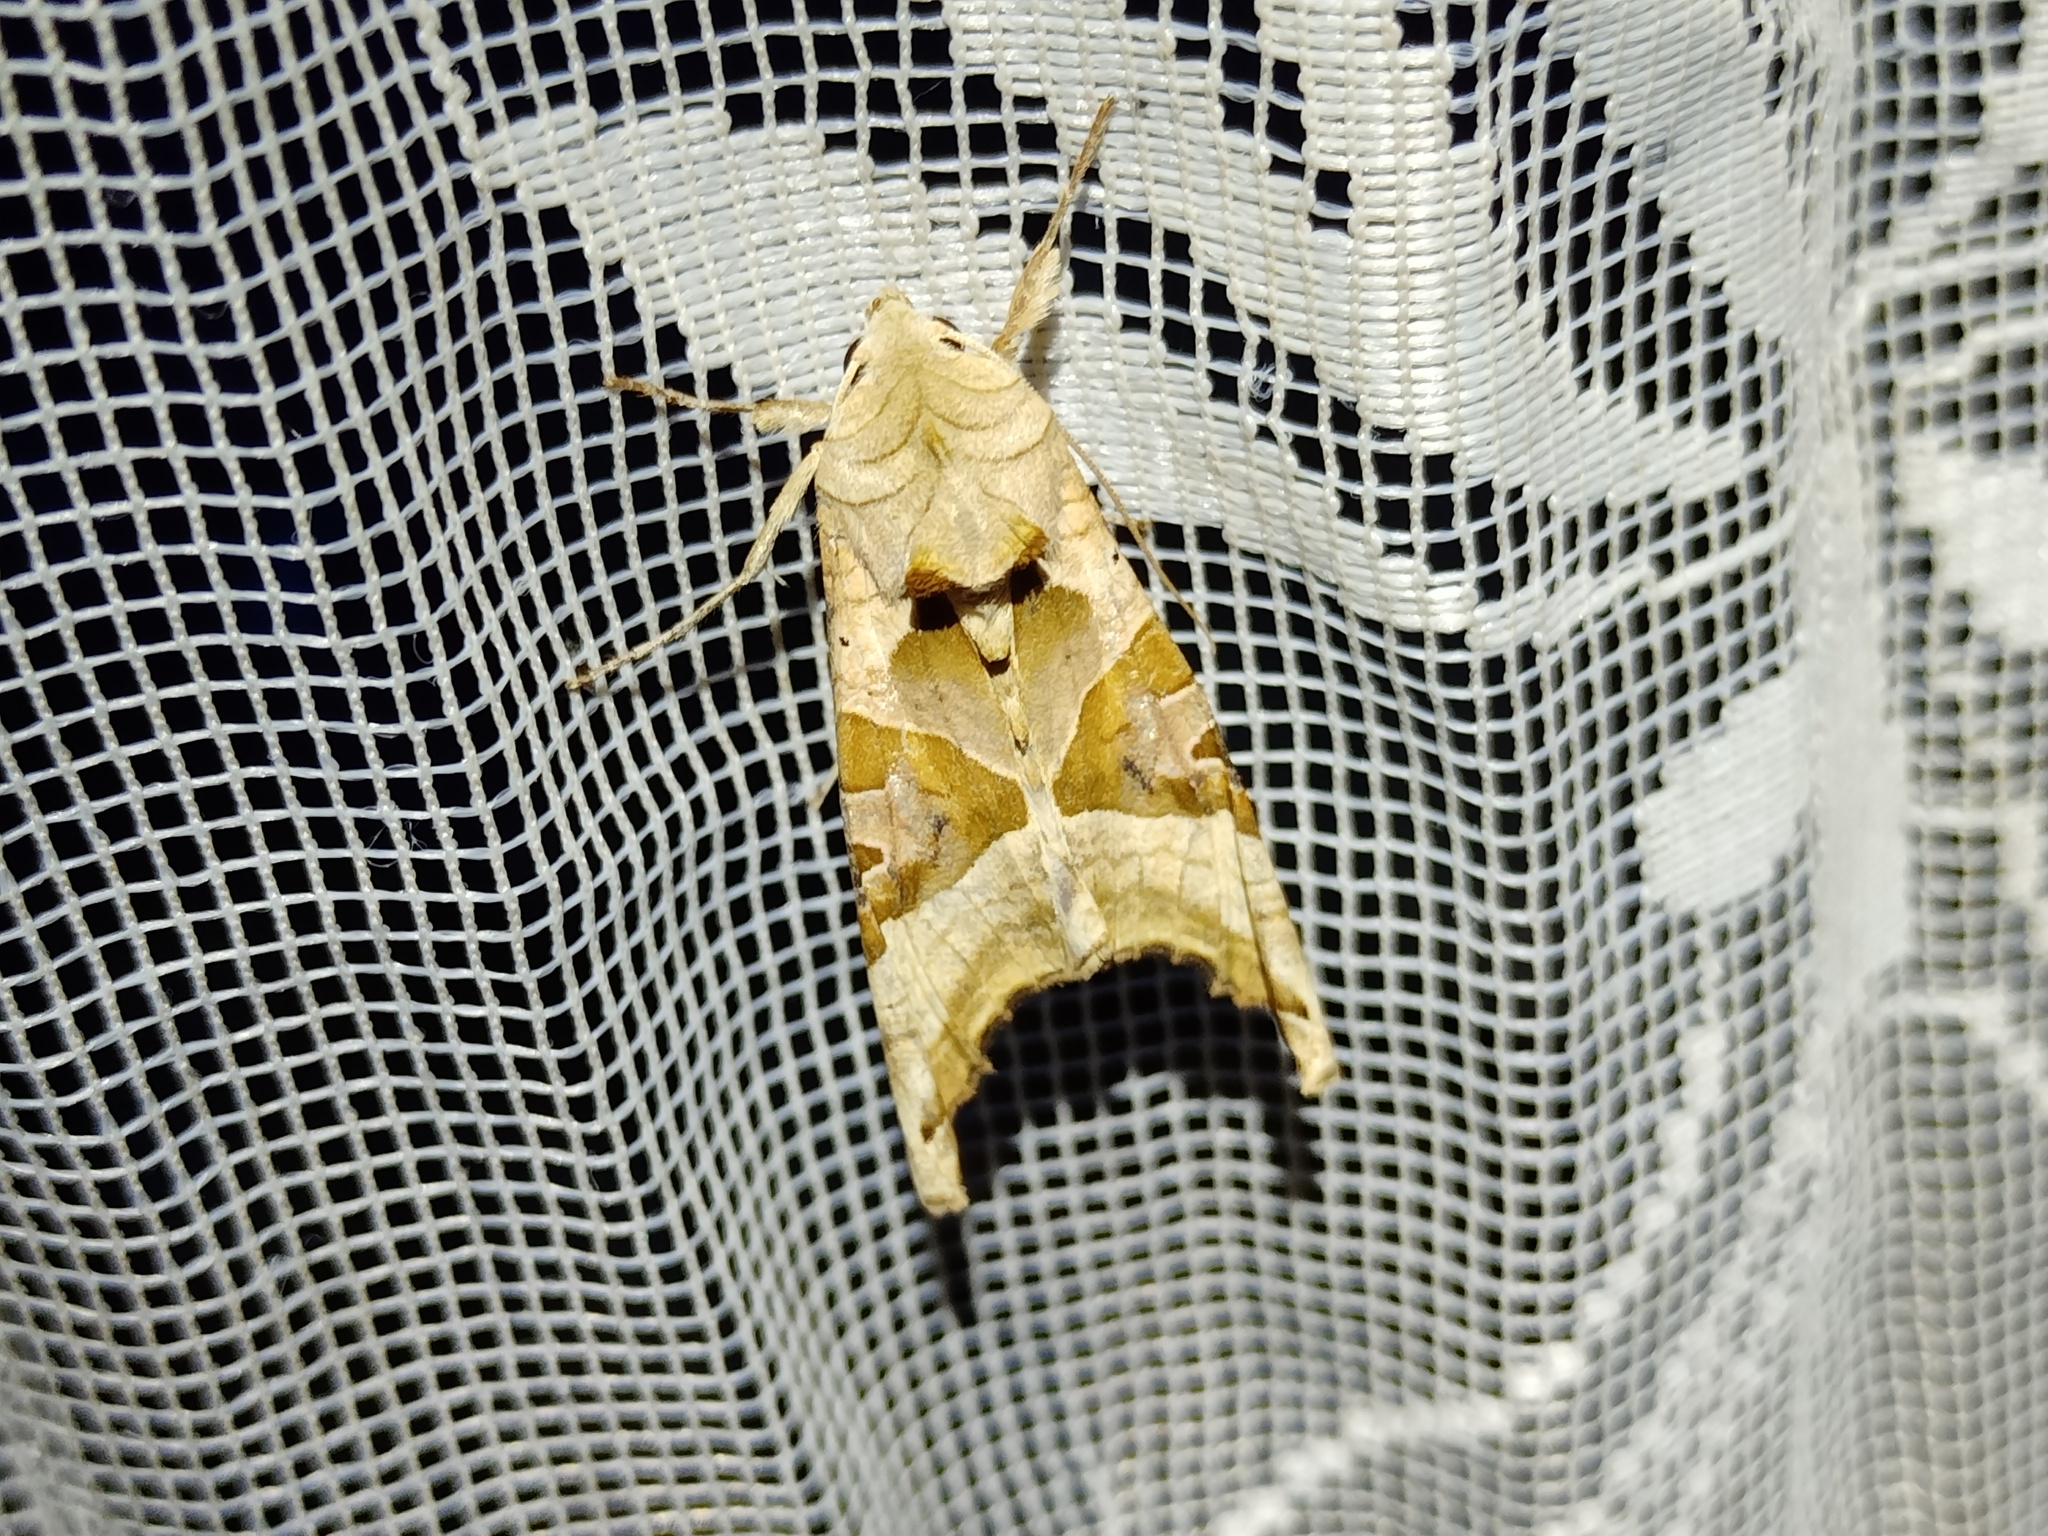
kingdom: Animalia
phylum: Arthropoda
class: Insecta
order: Lepidoptera
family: Noctuidae
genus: Phlogophora
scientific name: Phlogophora meticulosa
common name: Angle shades
